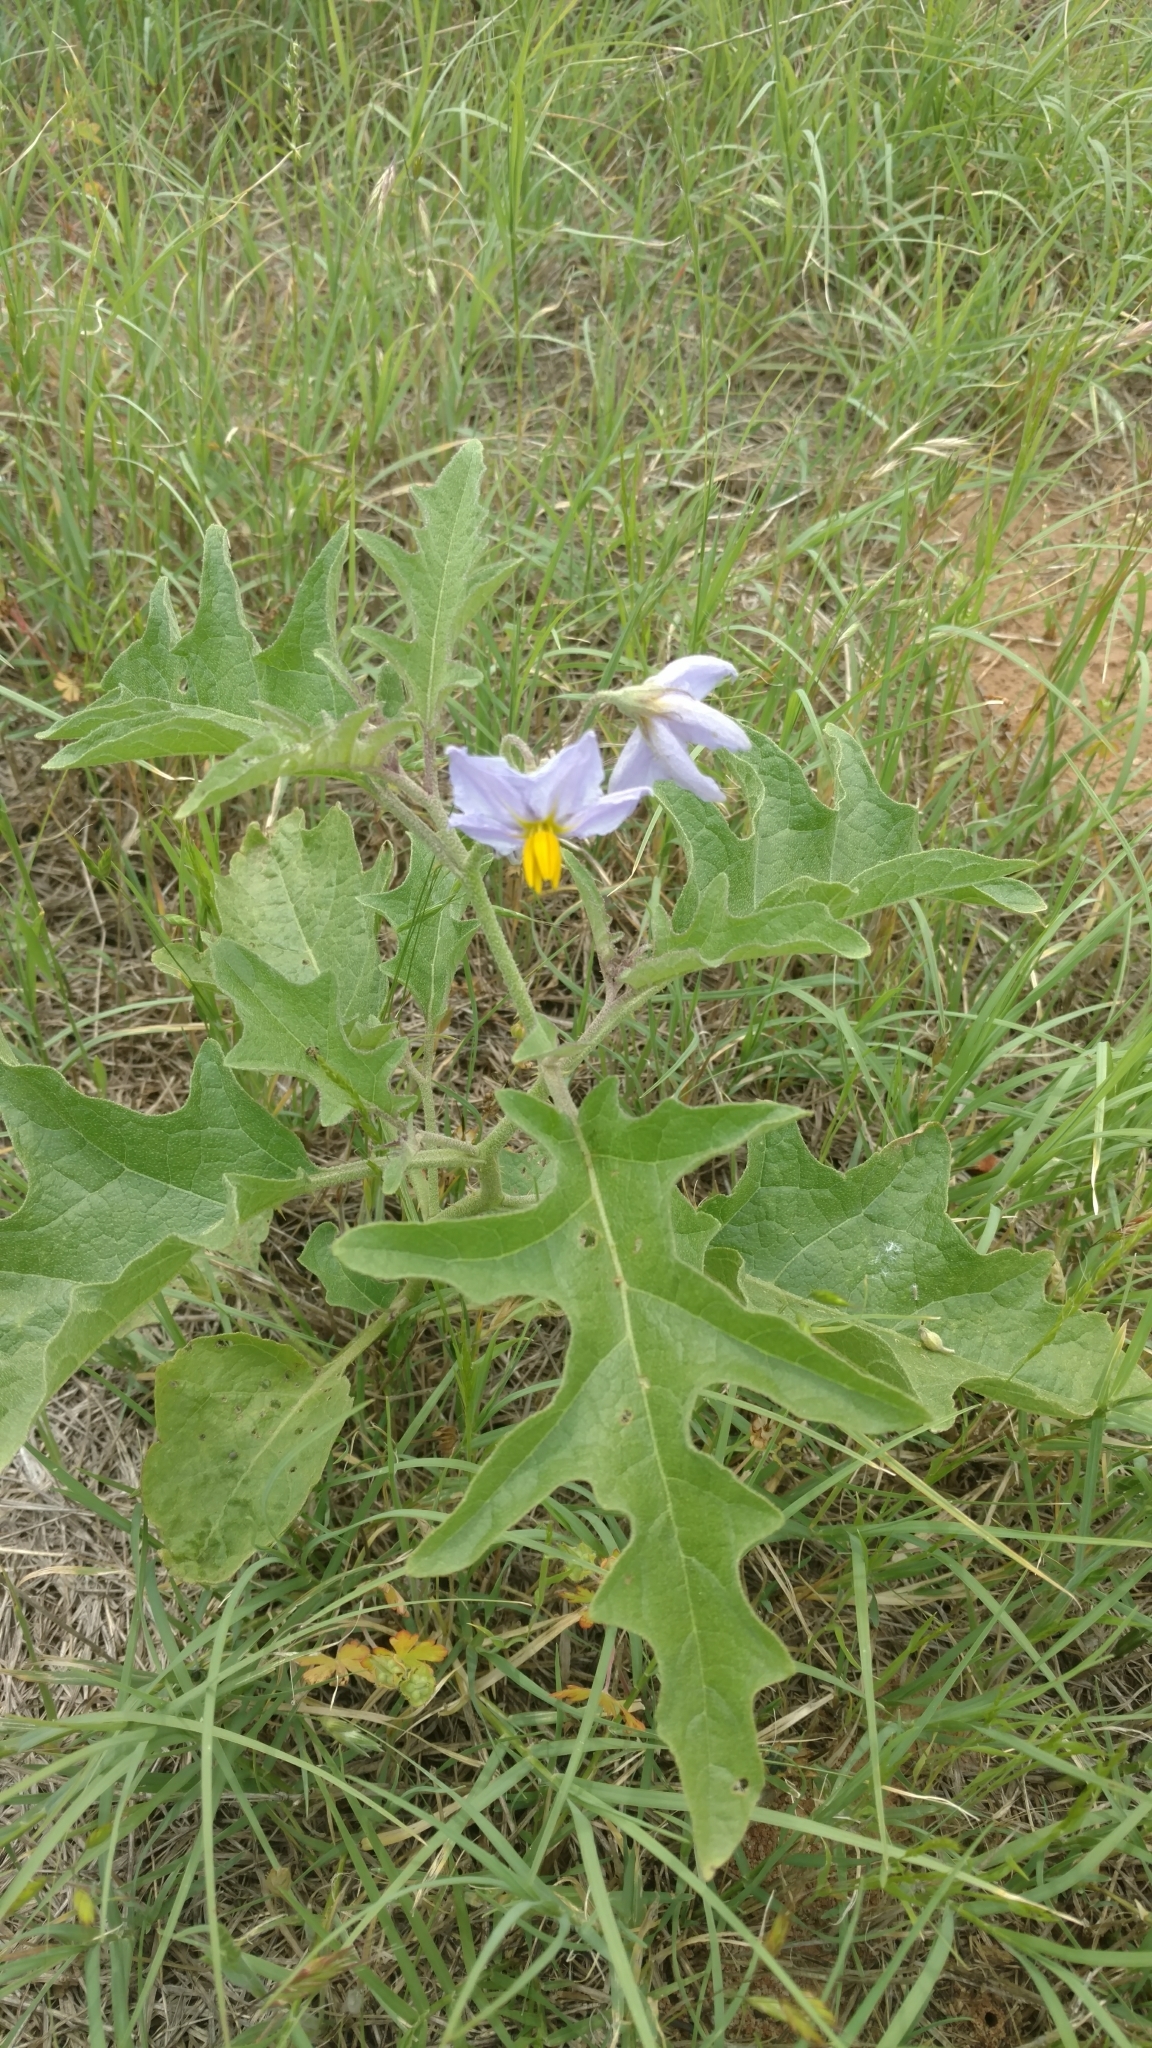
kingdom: Plantae
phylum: Tracheophyta
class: Magnoliopsida
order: Solanales
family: Solanaceae
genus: Solanum
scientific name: Solanum dimidiatum
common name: Carolina horse-nettle
